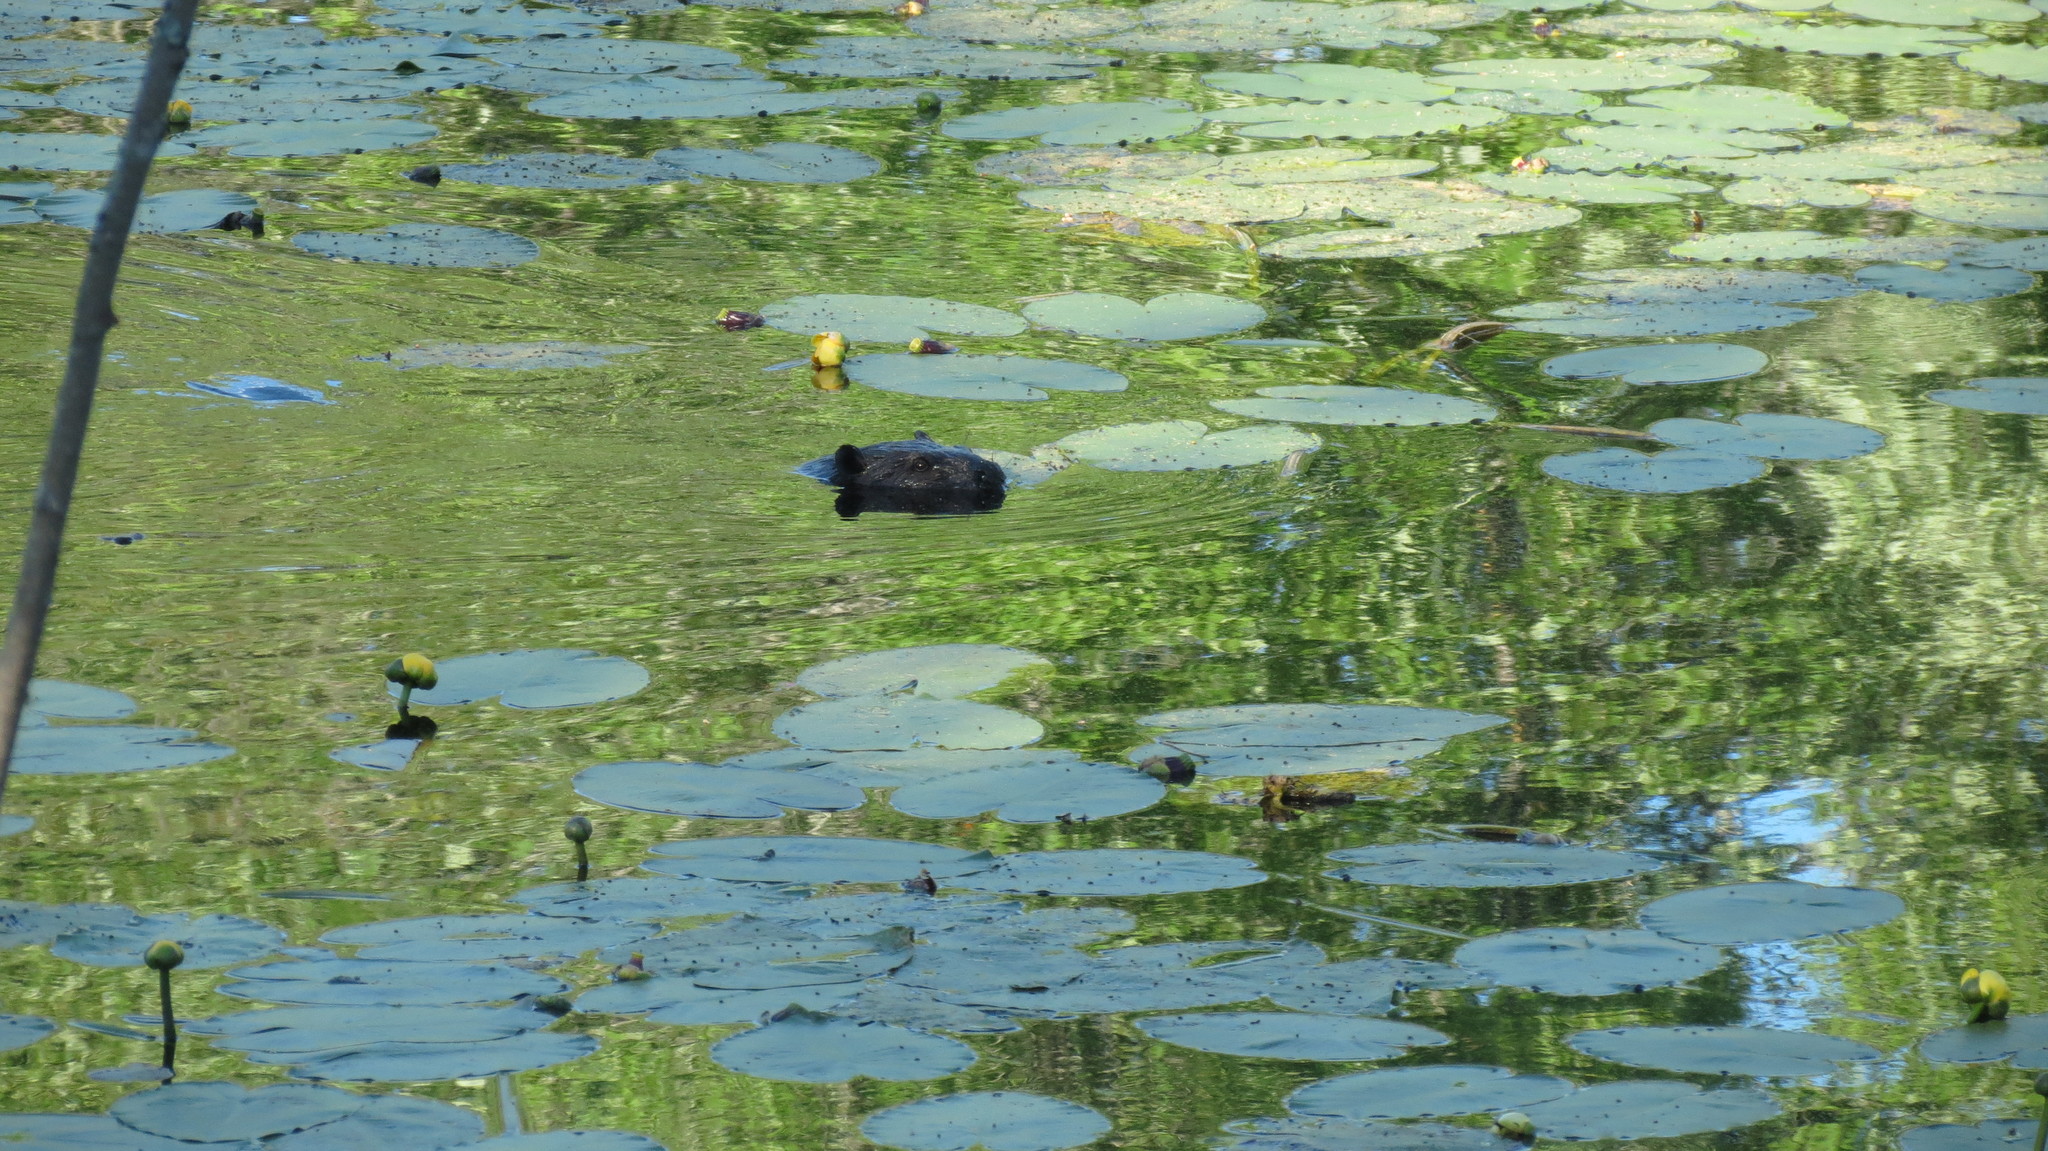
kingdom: Animalia
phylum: Chordata
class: Mammalia
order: Rodentia
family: Castoridae
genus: Castor
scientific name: Castor canadensis
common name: American beaver
